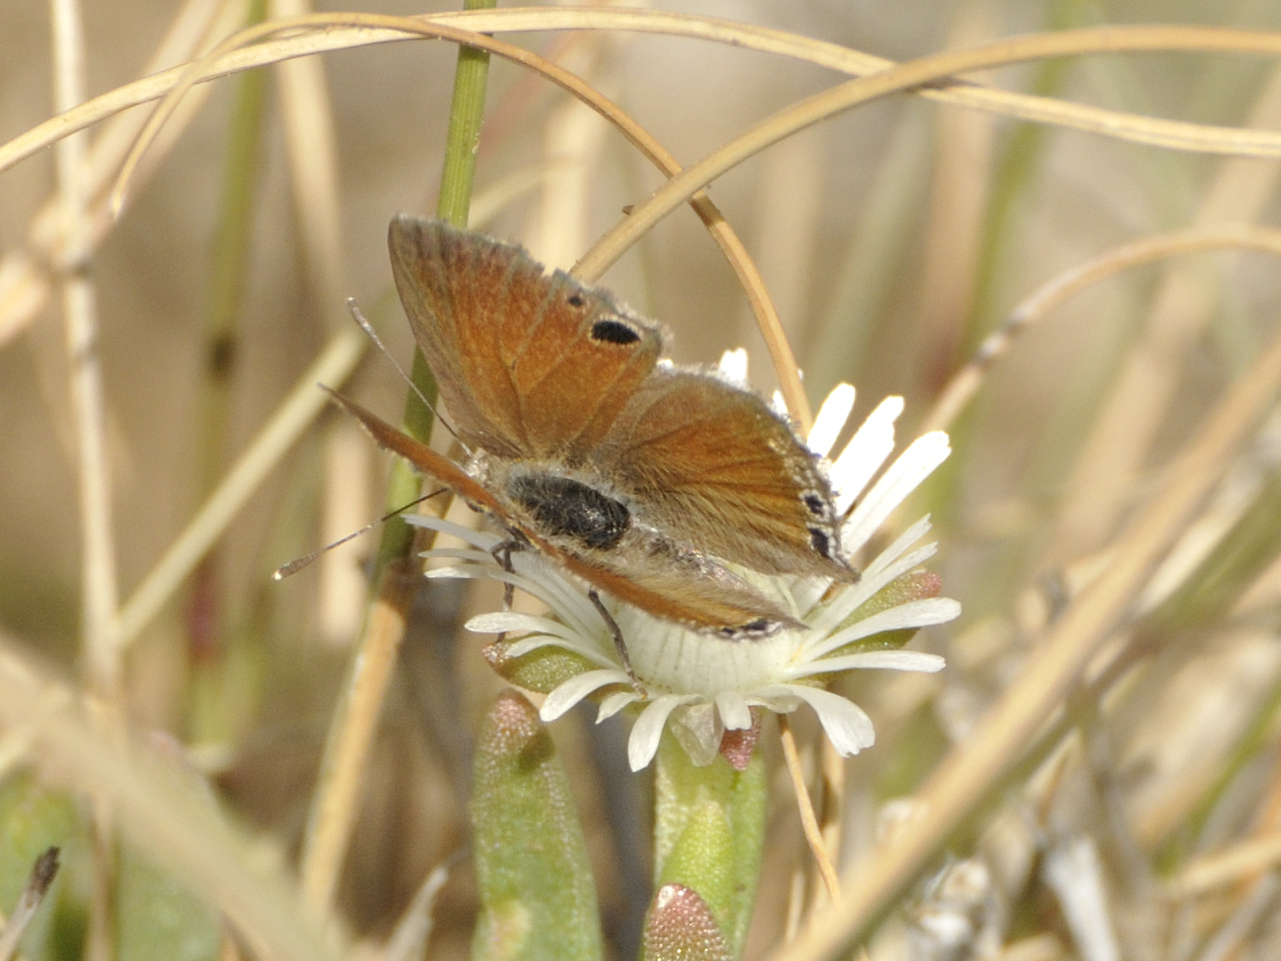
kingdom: Animalia
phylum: Arthropoda
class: Insecta
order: Lepidoptera
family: Lycaenidae
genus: Leptomyrina
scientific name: Leptomyrina lara
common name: Cape black-eye
